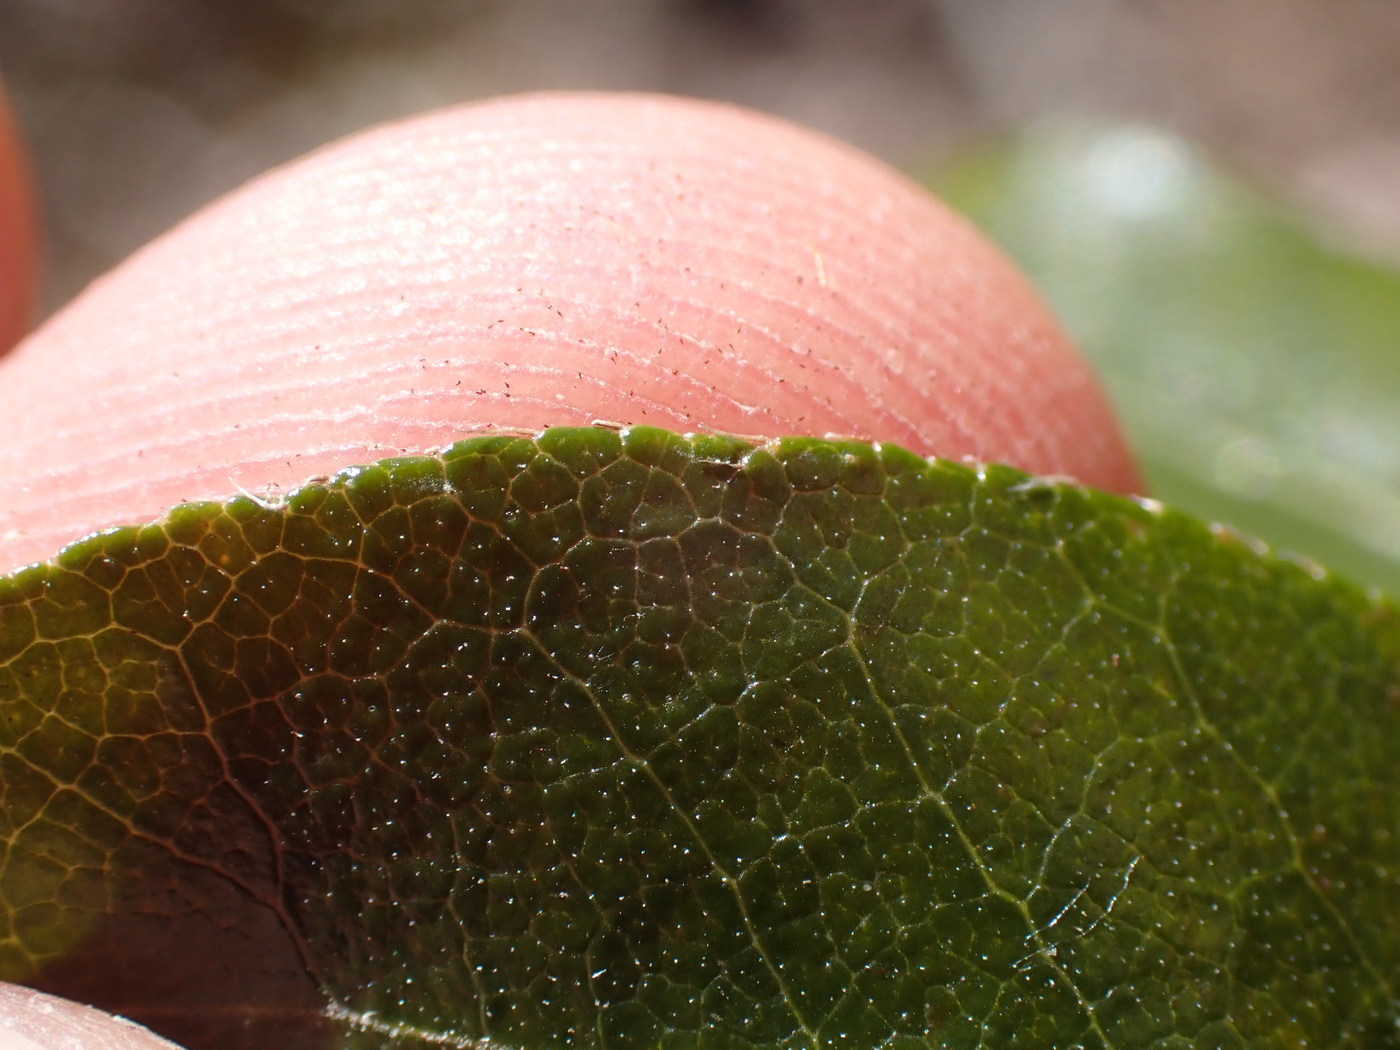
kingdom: Plantae
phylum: Tracheophyta
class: Magnoliopsida
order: Ericales
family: Ericaceae
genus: Pieris
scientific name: Pieris floribunda
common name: Flutterbush
